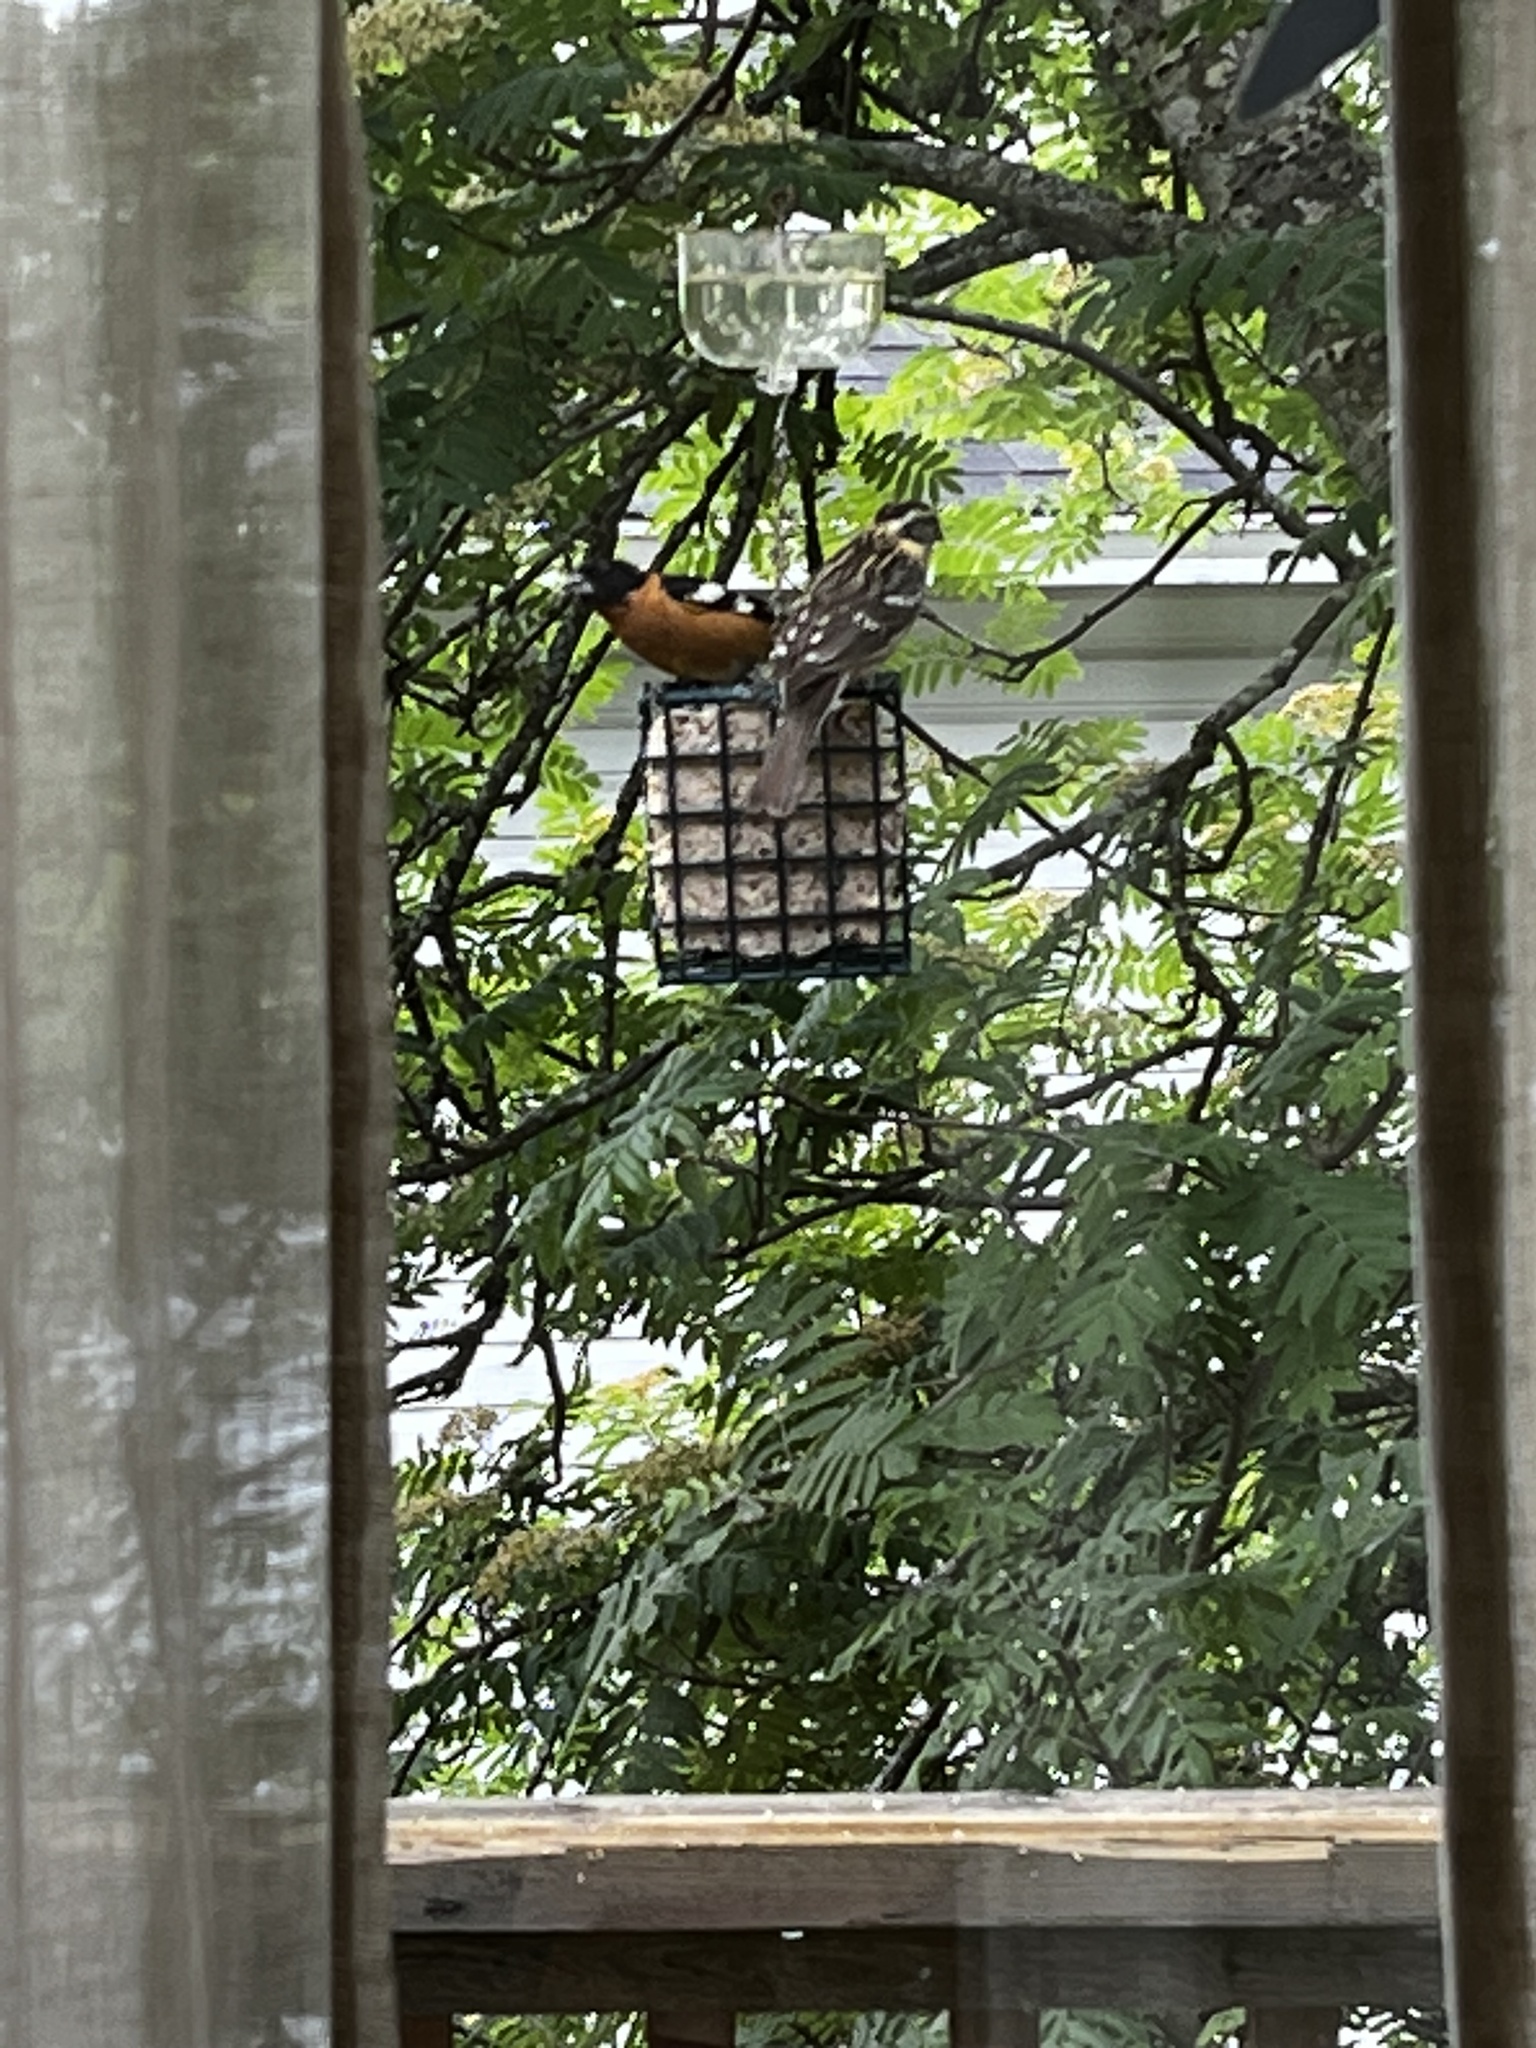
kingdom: Animalia
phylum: Chordata
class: Aves
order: Passeriformes
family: Cardinalidae
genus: Pheucticus
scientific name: Pheucticus melanocephalus
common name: Black-headed grosbeak
